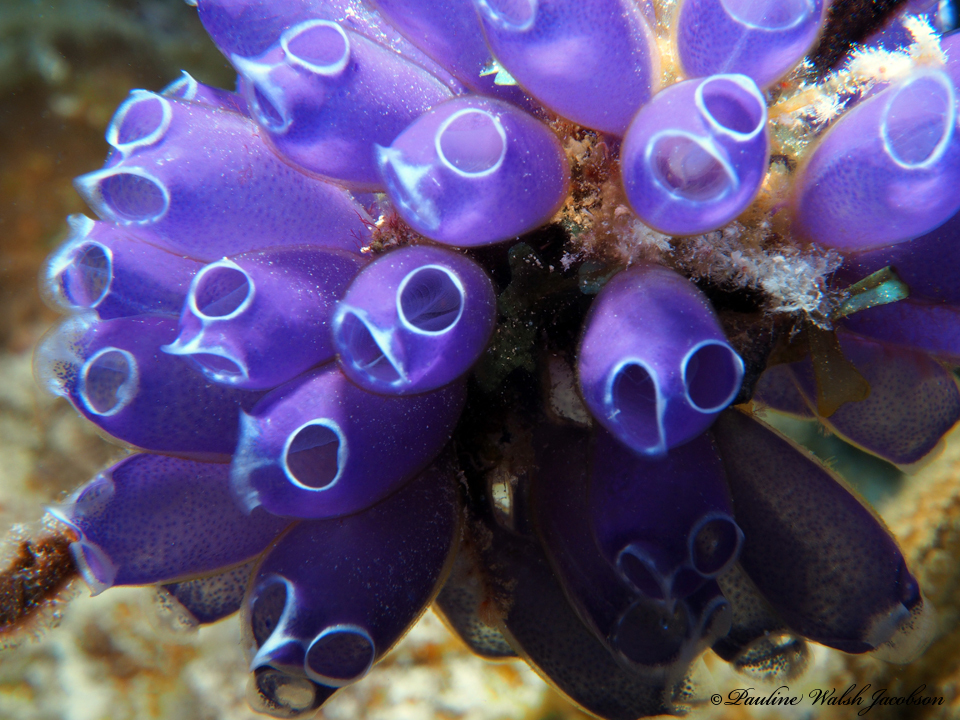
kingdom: Animalia
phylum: Chordata
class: Ascidiacea
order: Aplousobranchia
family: Clavelinidae
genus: Clavelina
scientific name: Clavelina puertosecensis
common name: Blue bell tunicate
